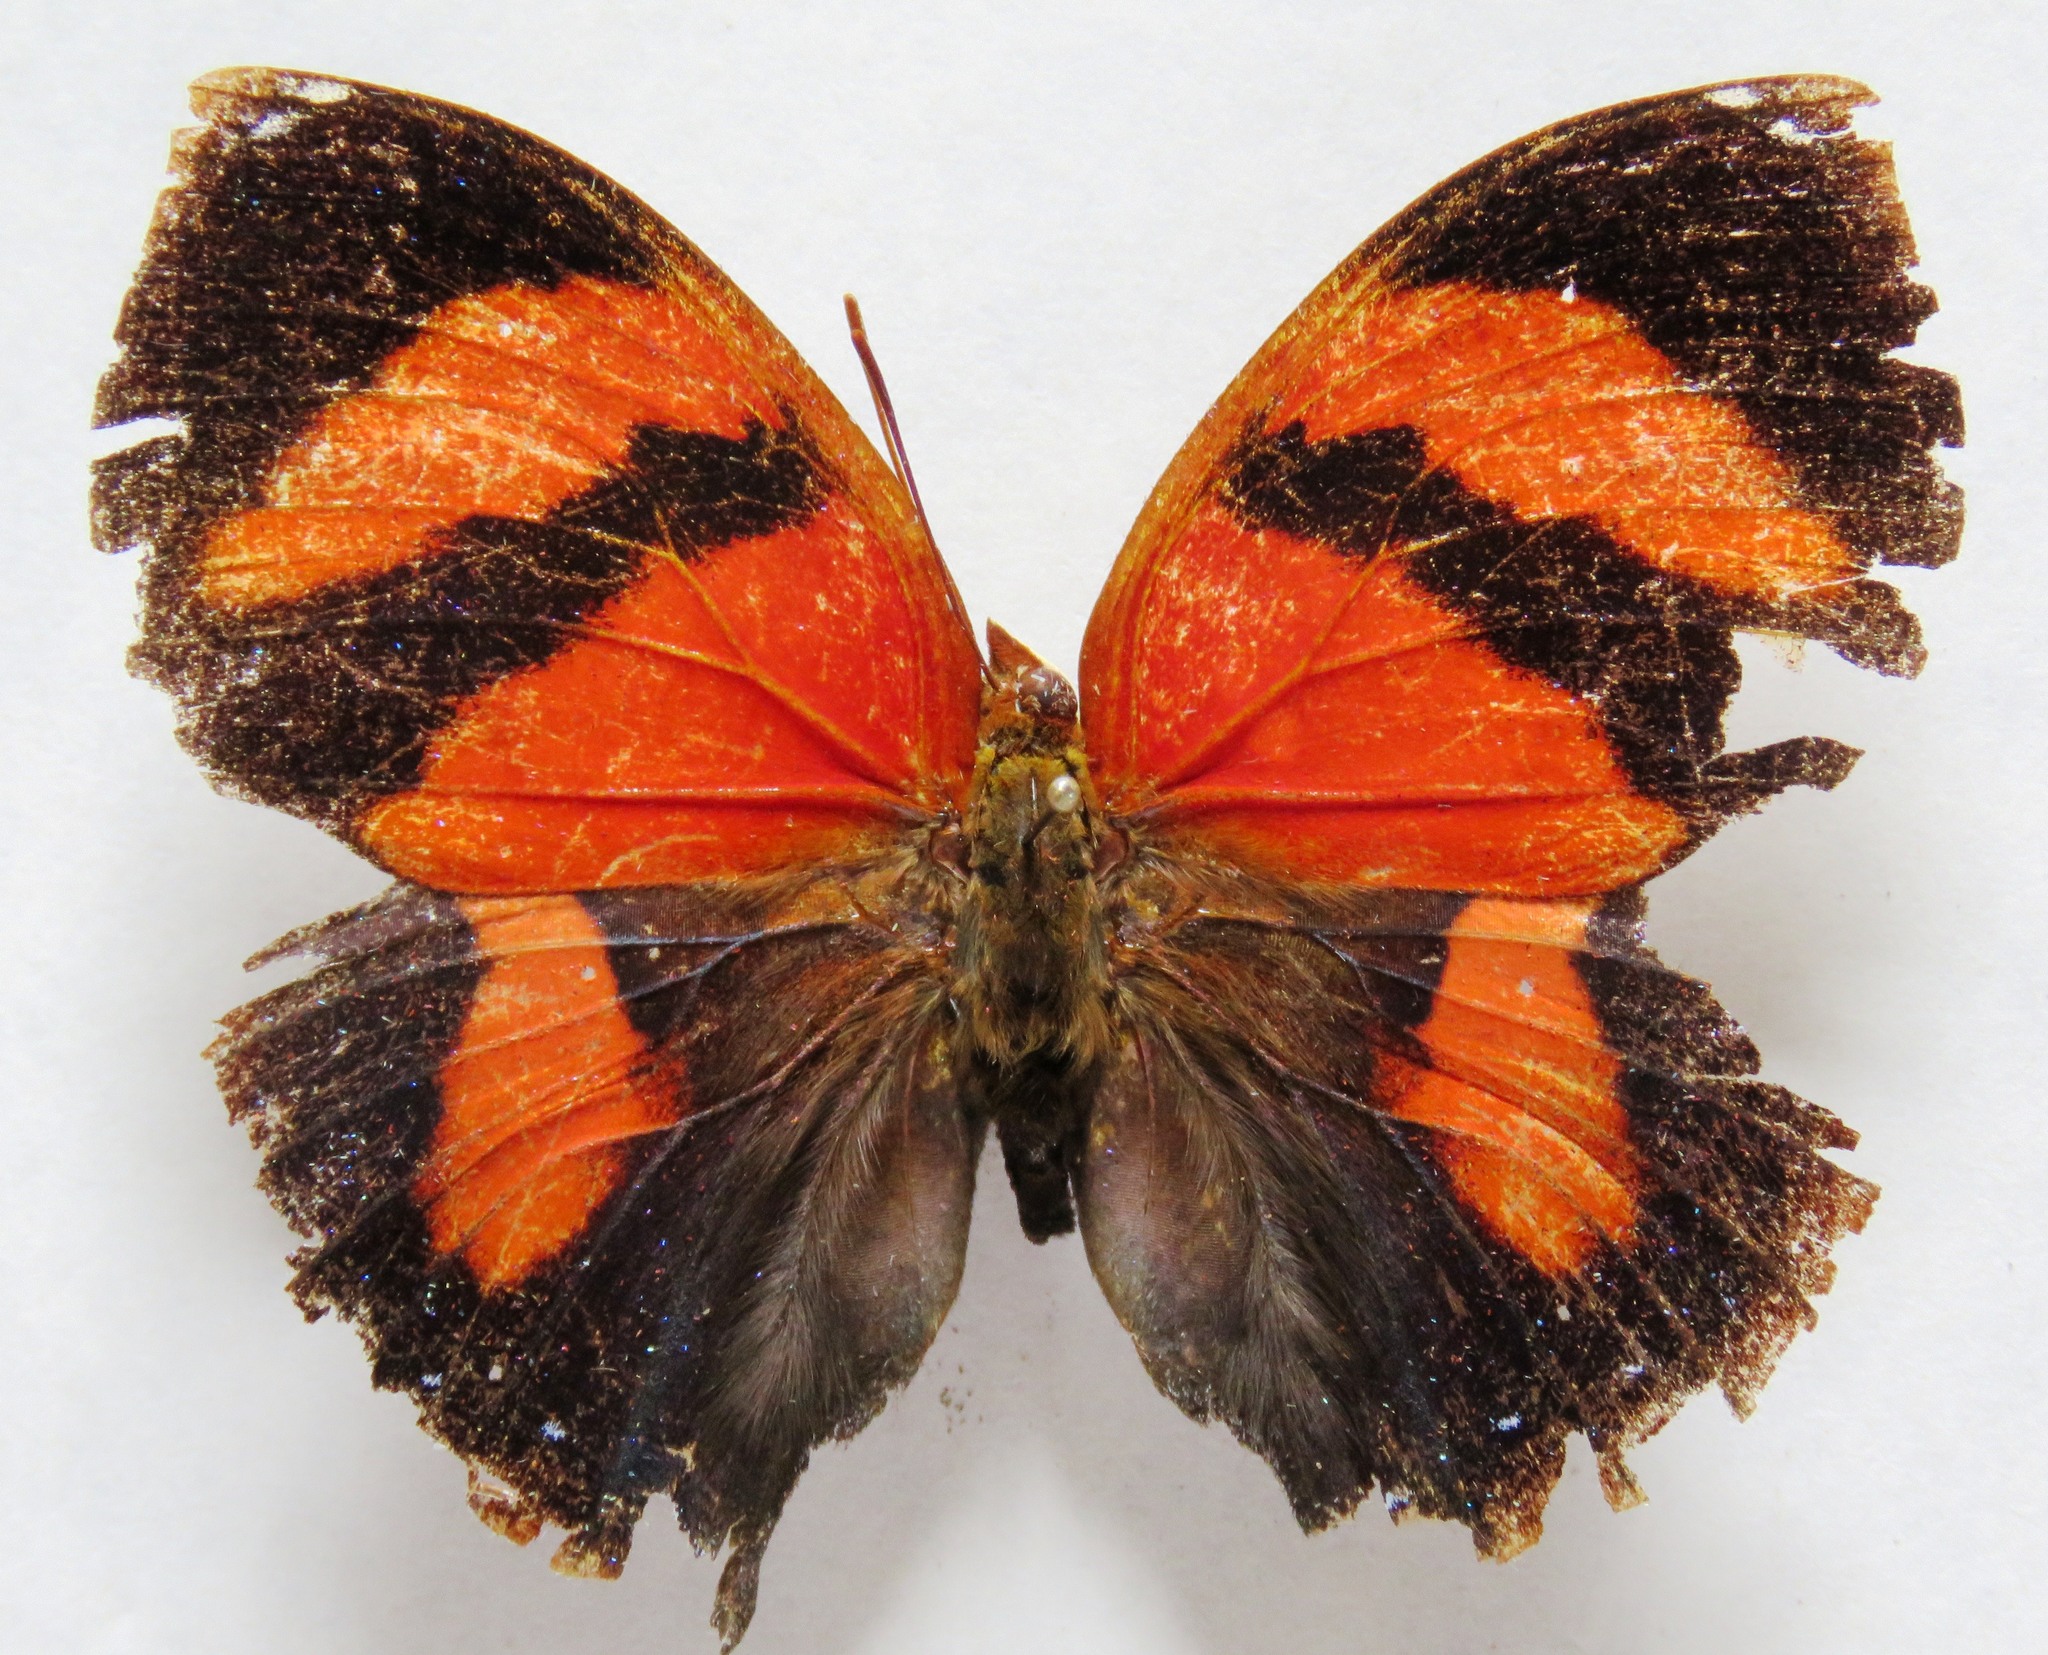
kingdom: Animalia
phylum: Arthropoda
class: Insecta
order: Lepidoptera
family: Nymphalidae
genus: Siderone
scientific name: Siderone galanthis
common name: Red-striped leafwing
